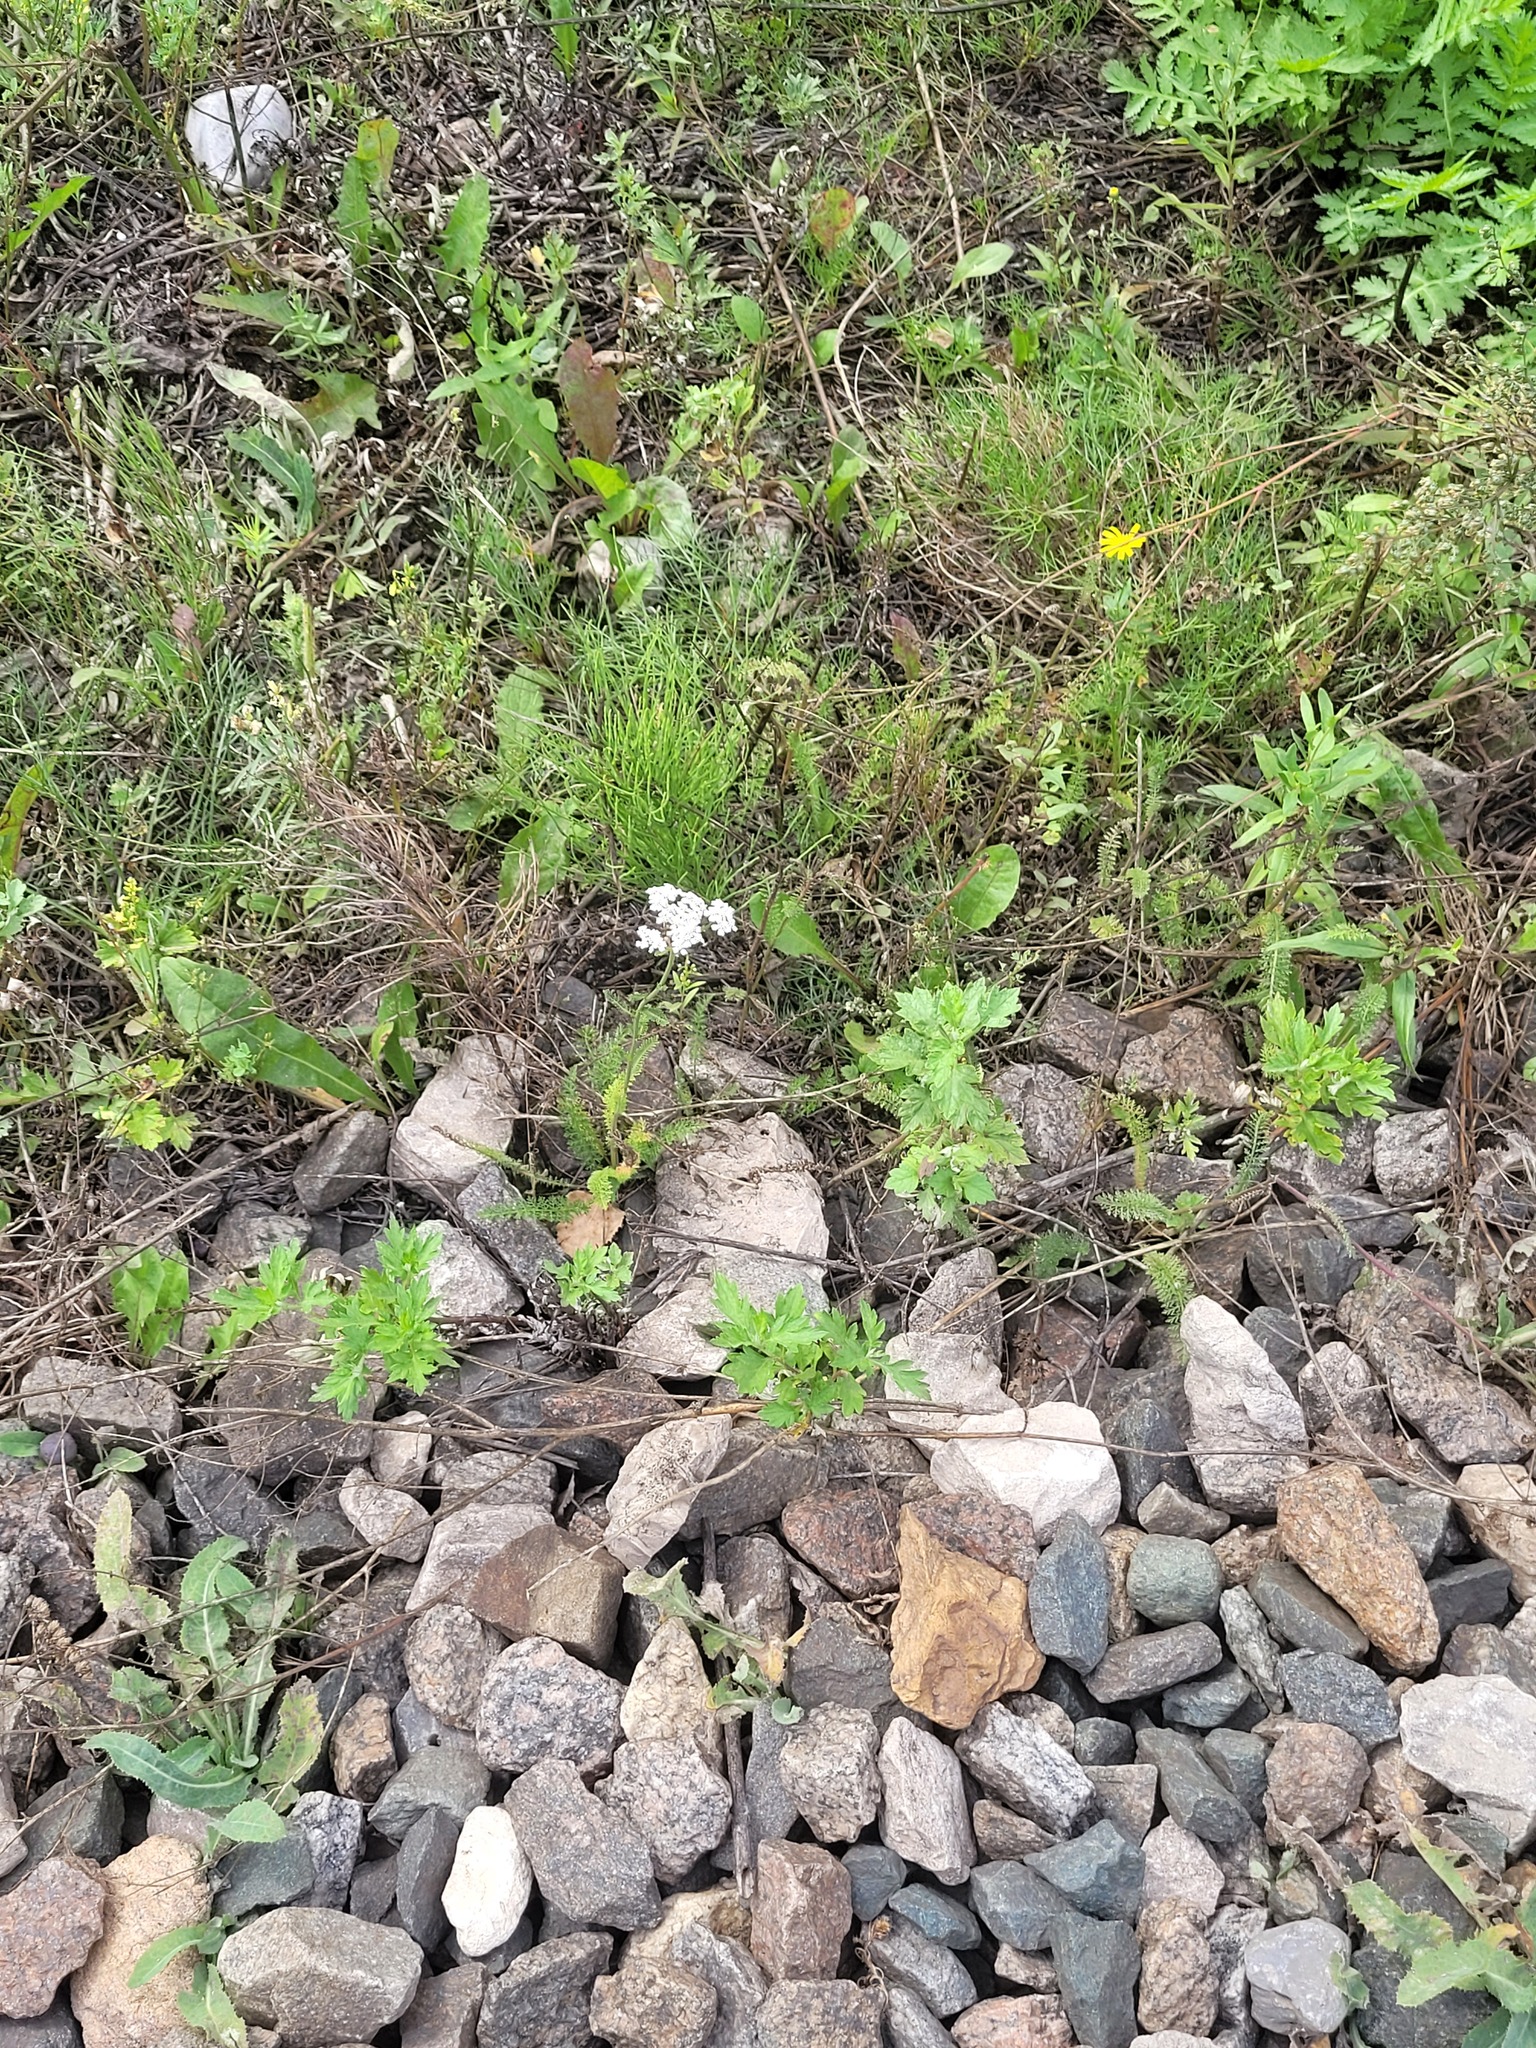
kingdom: Plantae
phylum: Tracheophyta
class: Magnoliopsida
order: Asterales
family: Asteraceae
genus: Achillea
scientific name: Achillea millefolium
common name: Yarrow
